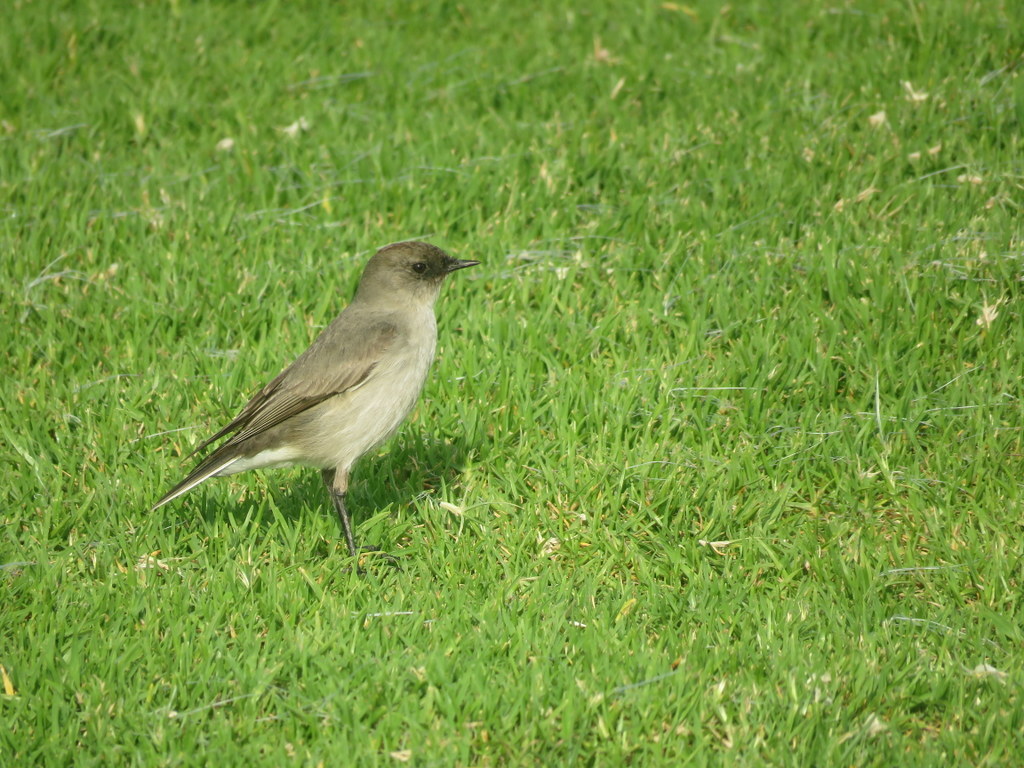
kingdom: Animalia
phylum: Chordata
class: Aves
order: Passeriformes
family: Tyrannidae
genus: Muscisaxicola
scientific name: Muscisaxicola maclovianus
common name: Dark-faced ground tyrant
